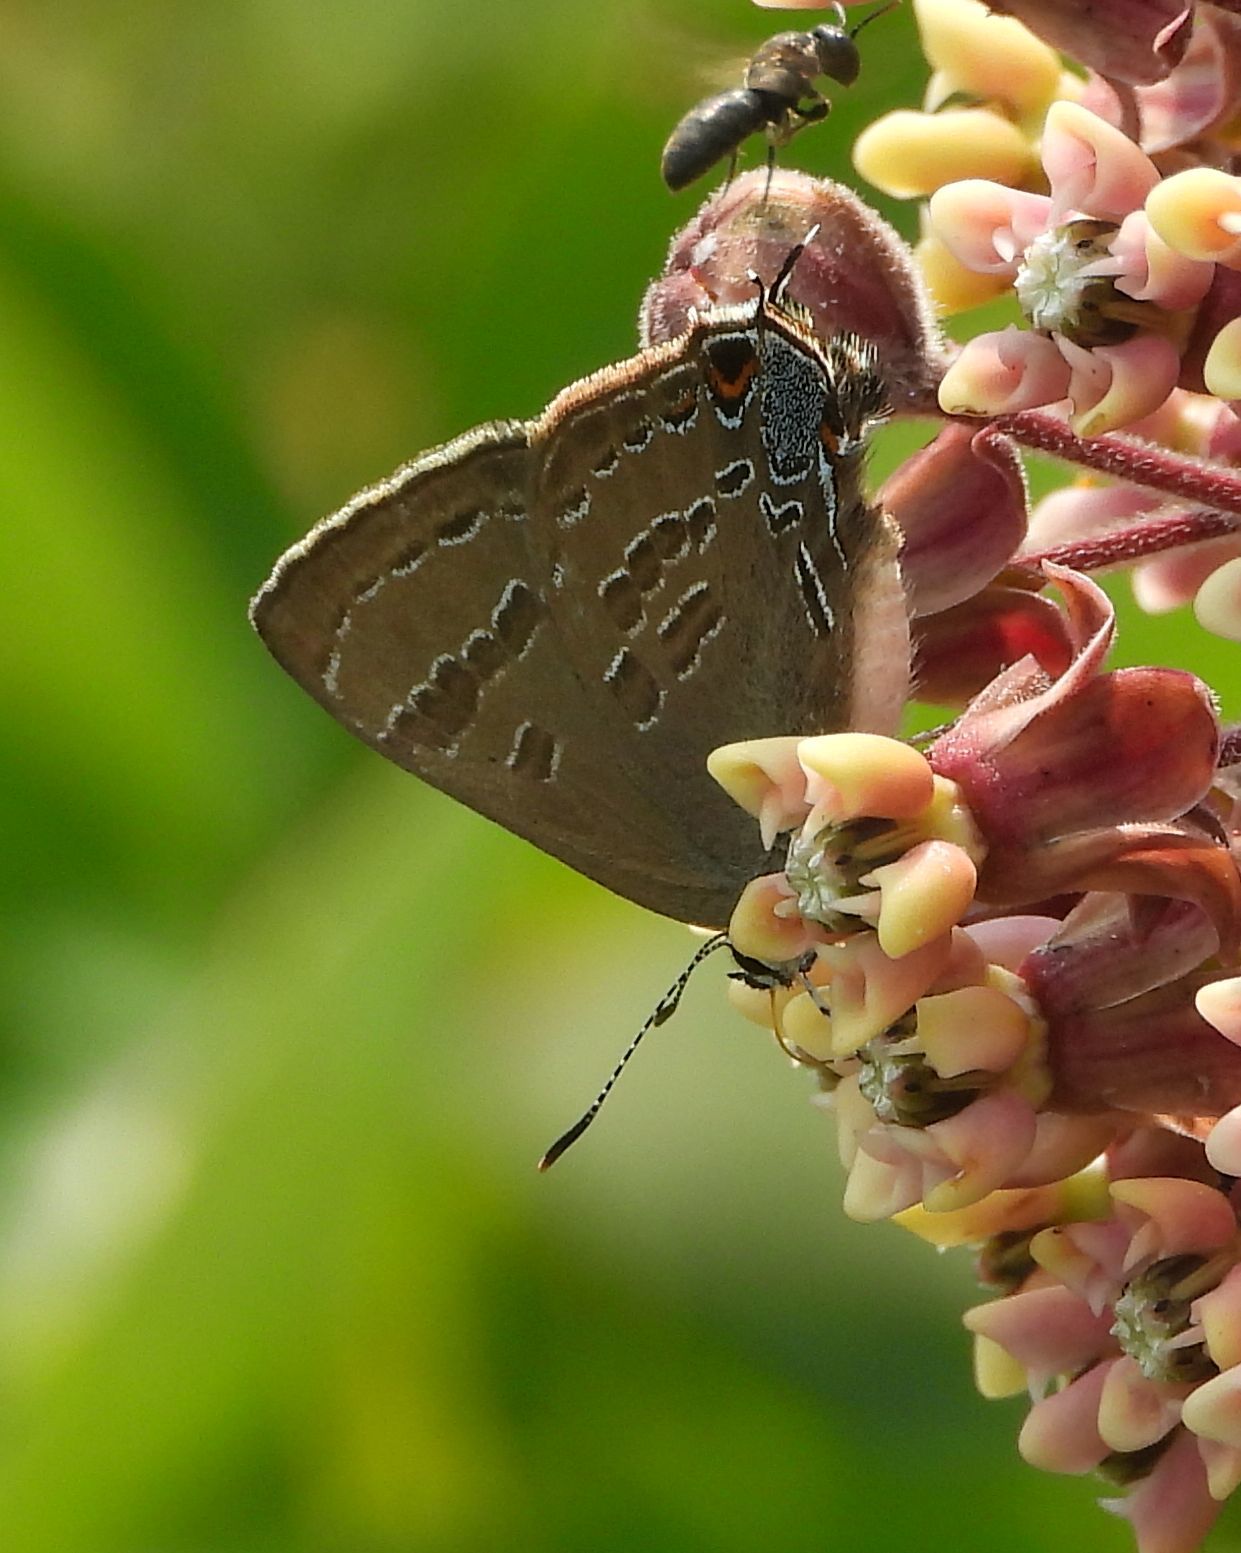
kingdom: Animalia
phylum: Arthropoda
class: Insecta
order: Lepidoptera
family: Lycaenidae
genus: Strymon
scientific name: Strymon caryaevorus
